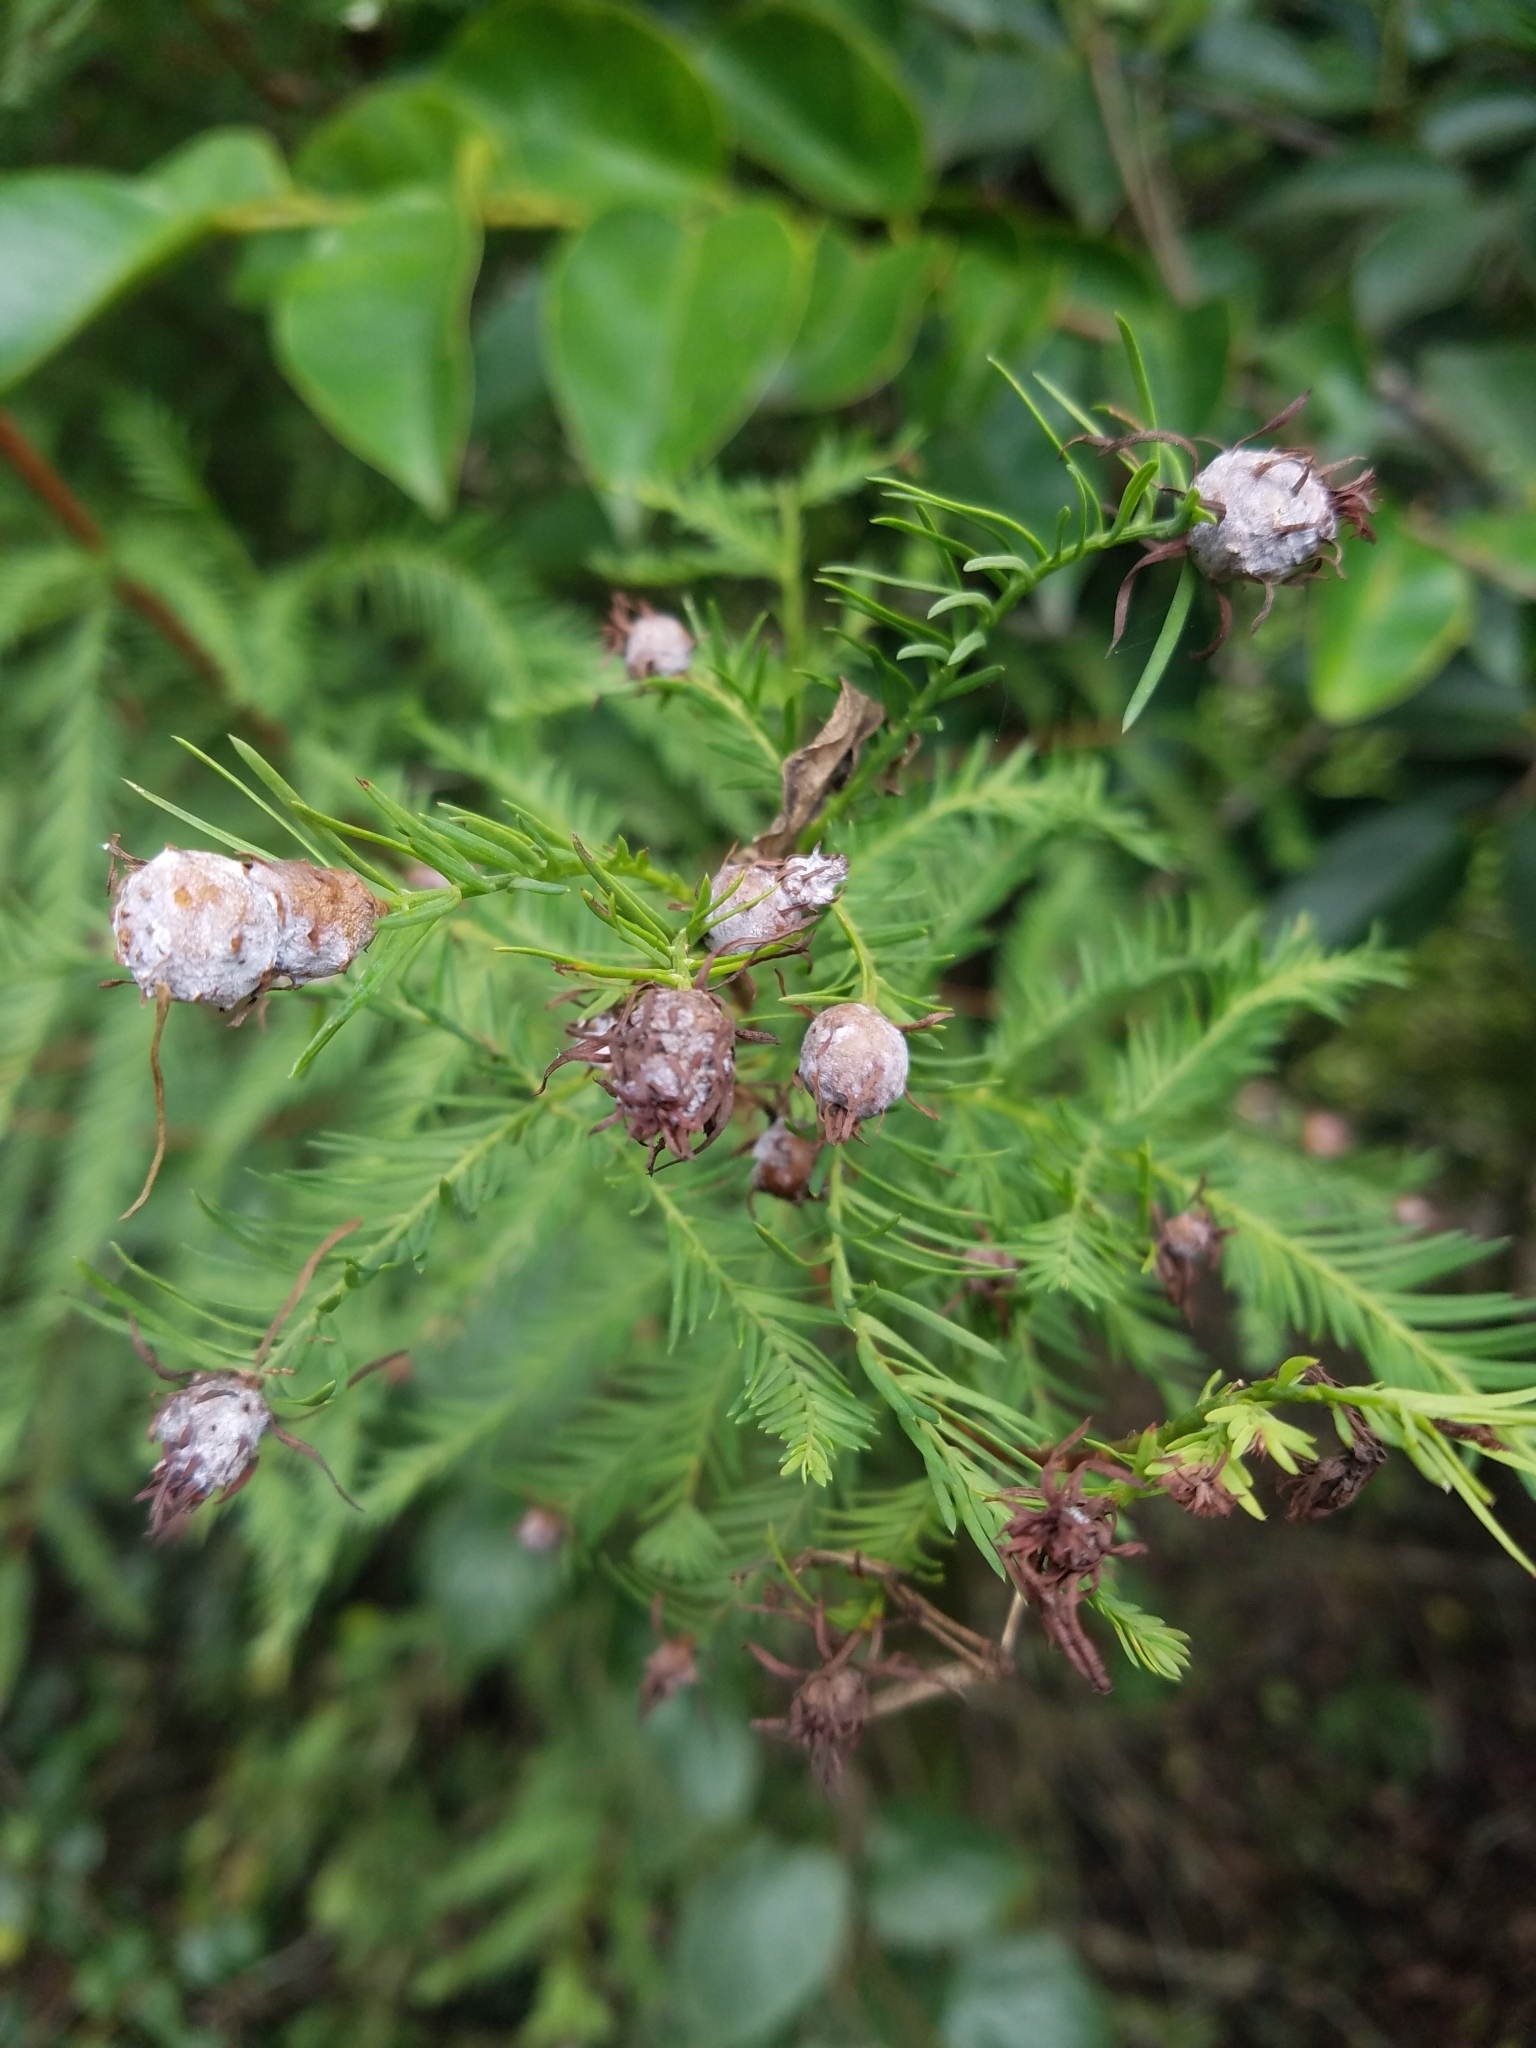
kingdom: Animalia
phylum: Arthropoda
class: Insecta
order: Diptera
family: Cecidomyiidae
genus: Taxodiomyia
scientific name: Taxodiomyia cupressiananassa
